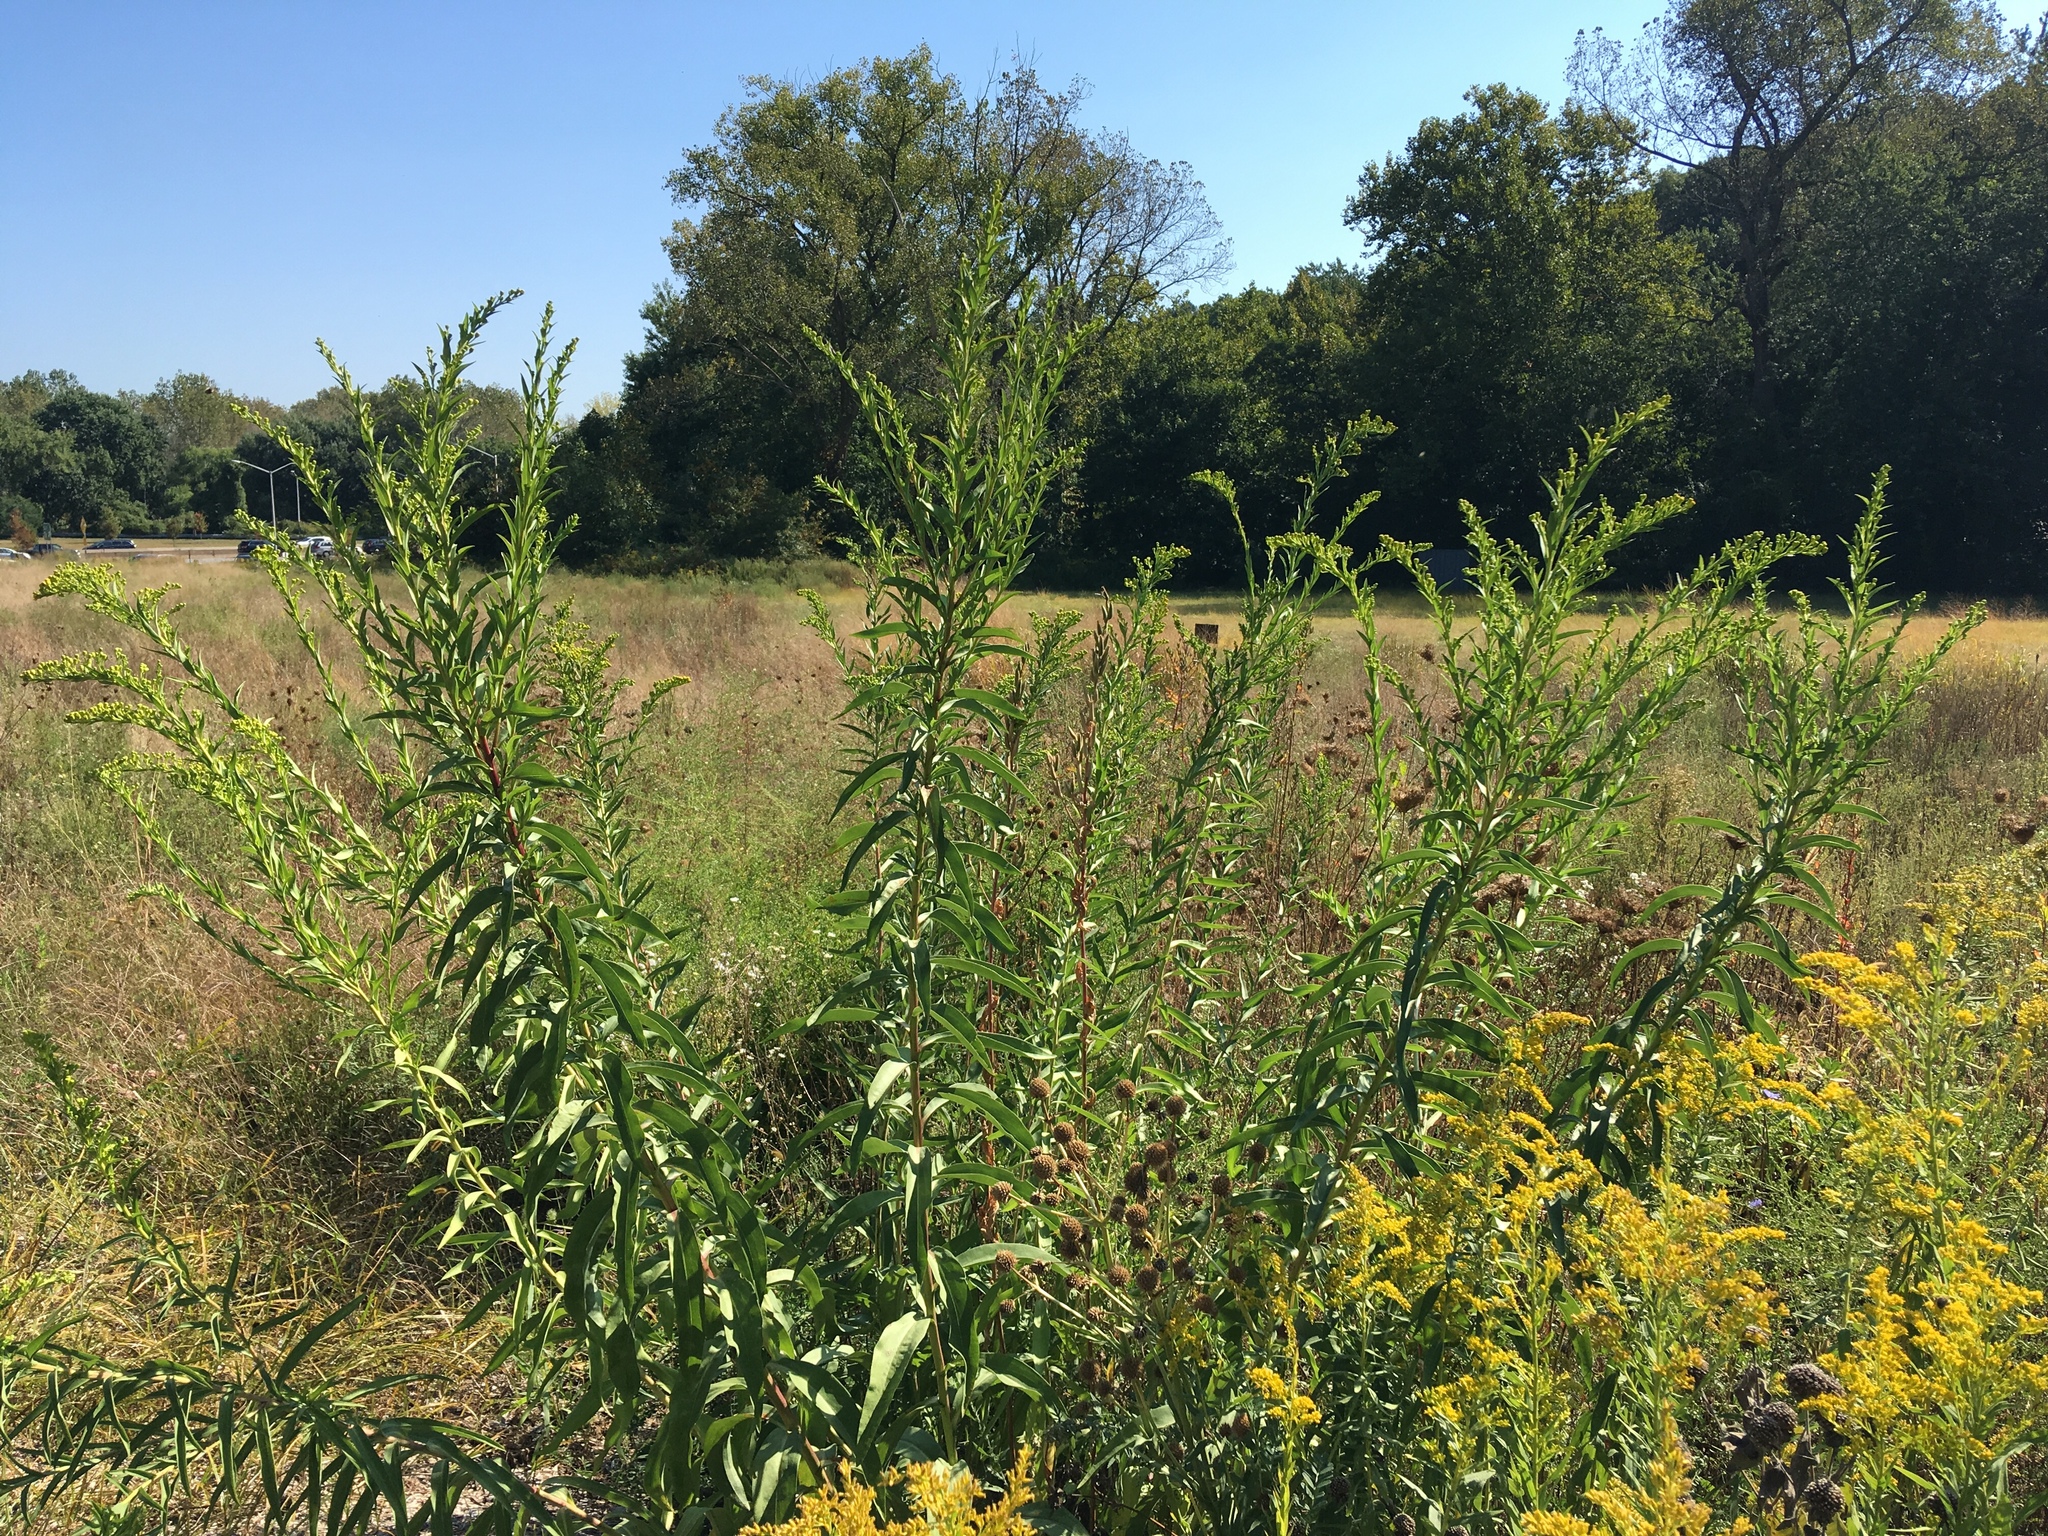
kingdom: Plantae
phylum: Tracheophyta
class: Magnoliopsida
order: Asterales
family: Asteraceae
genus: Solidago
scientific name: Solidago sempervirens
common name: Salt-marsh goldenrod
